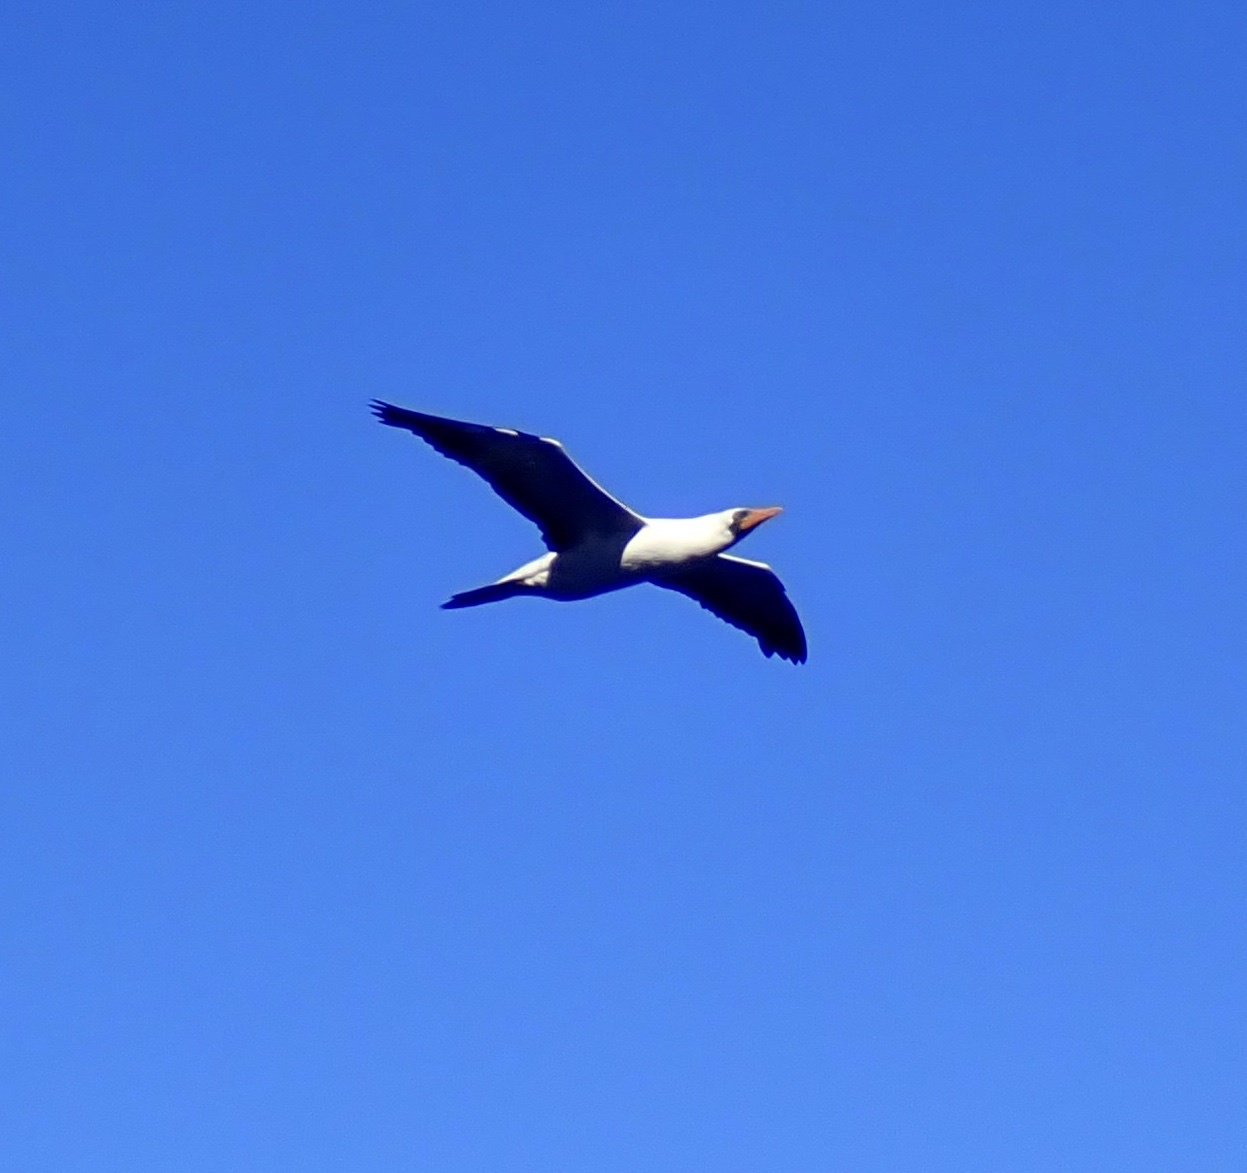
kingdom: Animalia
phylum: Chordata
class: Aves
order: Suliformes
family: Sulidae
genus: Sula
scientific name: Sula granti
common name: Nazca booby
